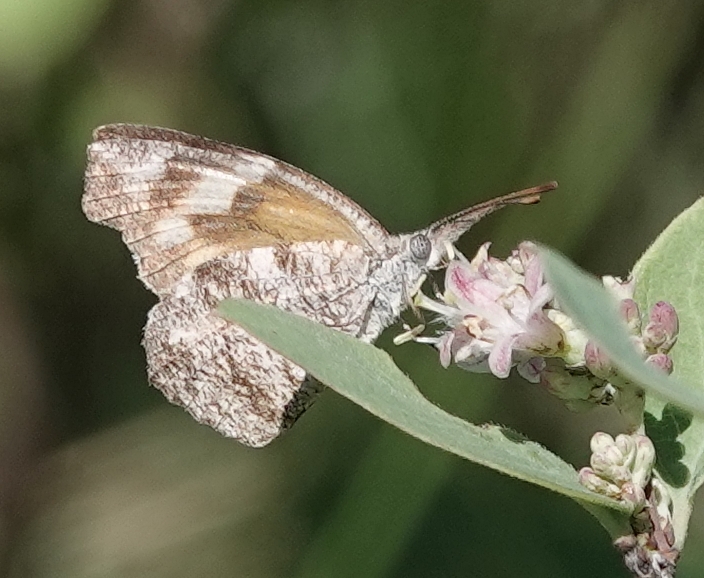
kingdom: Animalia
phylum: Arthropoda
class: Insecta
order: Lepidoptera
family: Nymphalidae
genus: Libytheana
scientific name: Libytheana carinenta
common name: American snout
